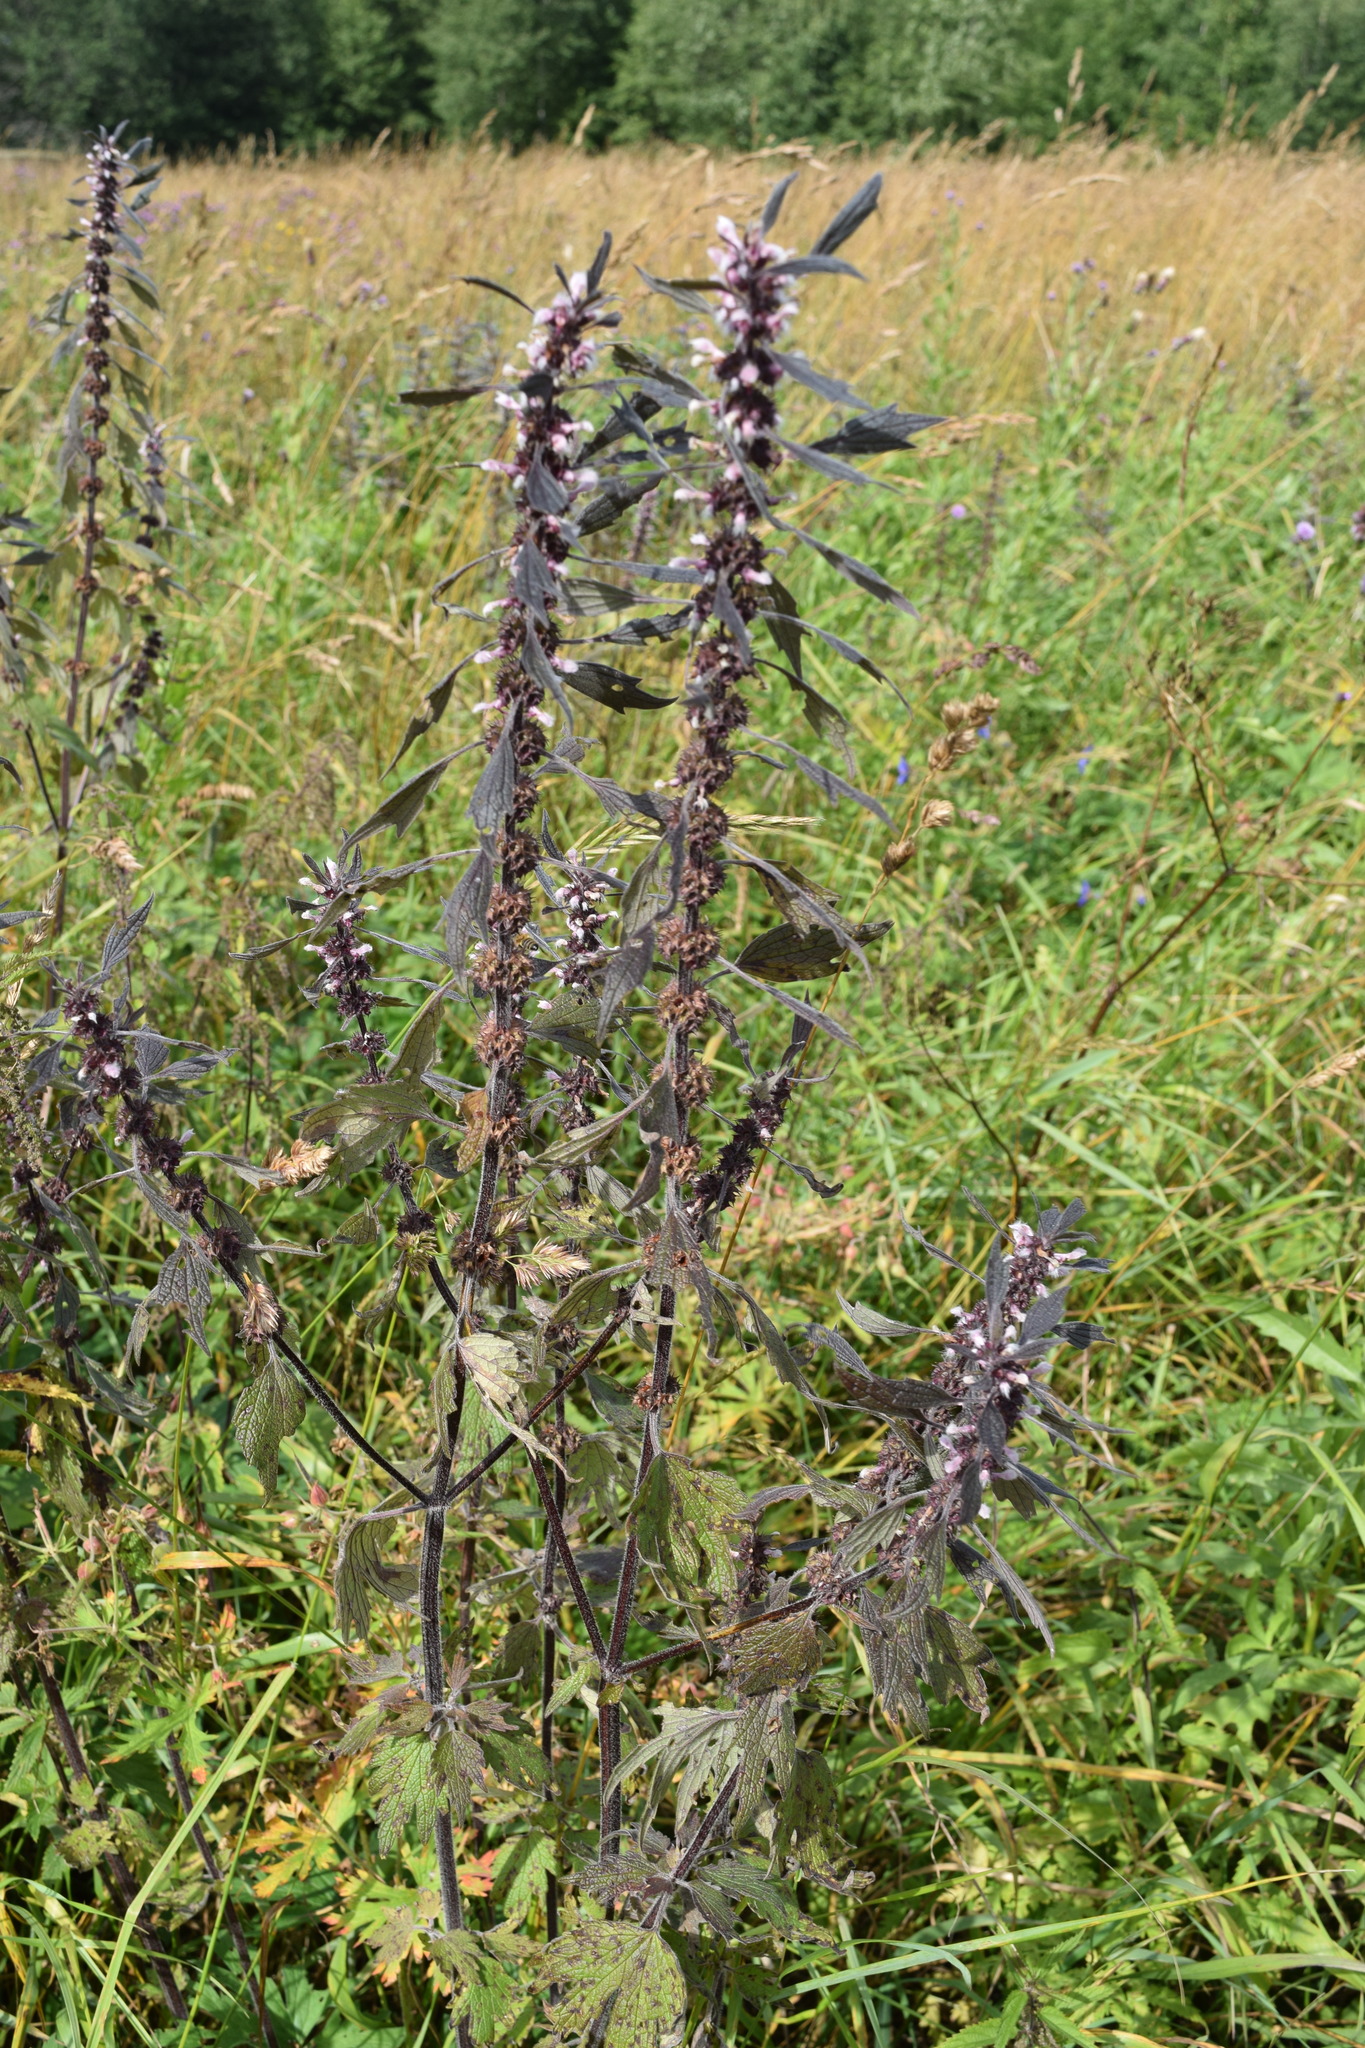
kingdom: Plantae
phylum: Tracheophyta
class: Magnoliopsida
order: Lamiales
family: Lamiaceae
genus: Leonurus
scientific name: Leonurus quinquelobatus
